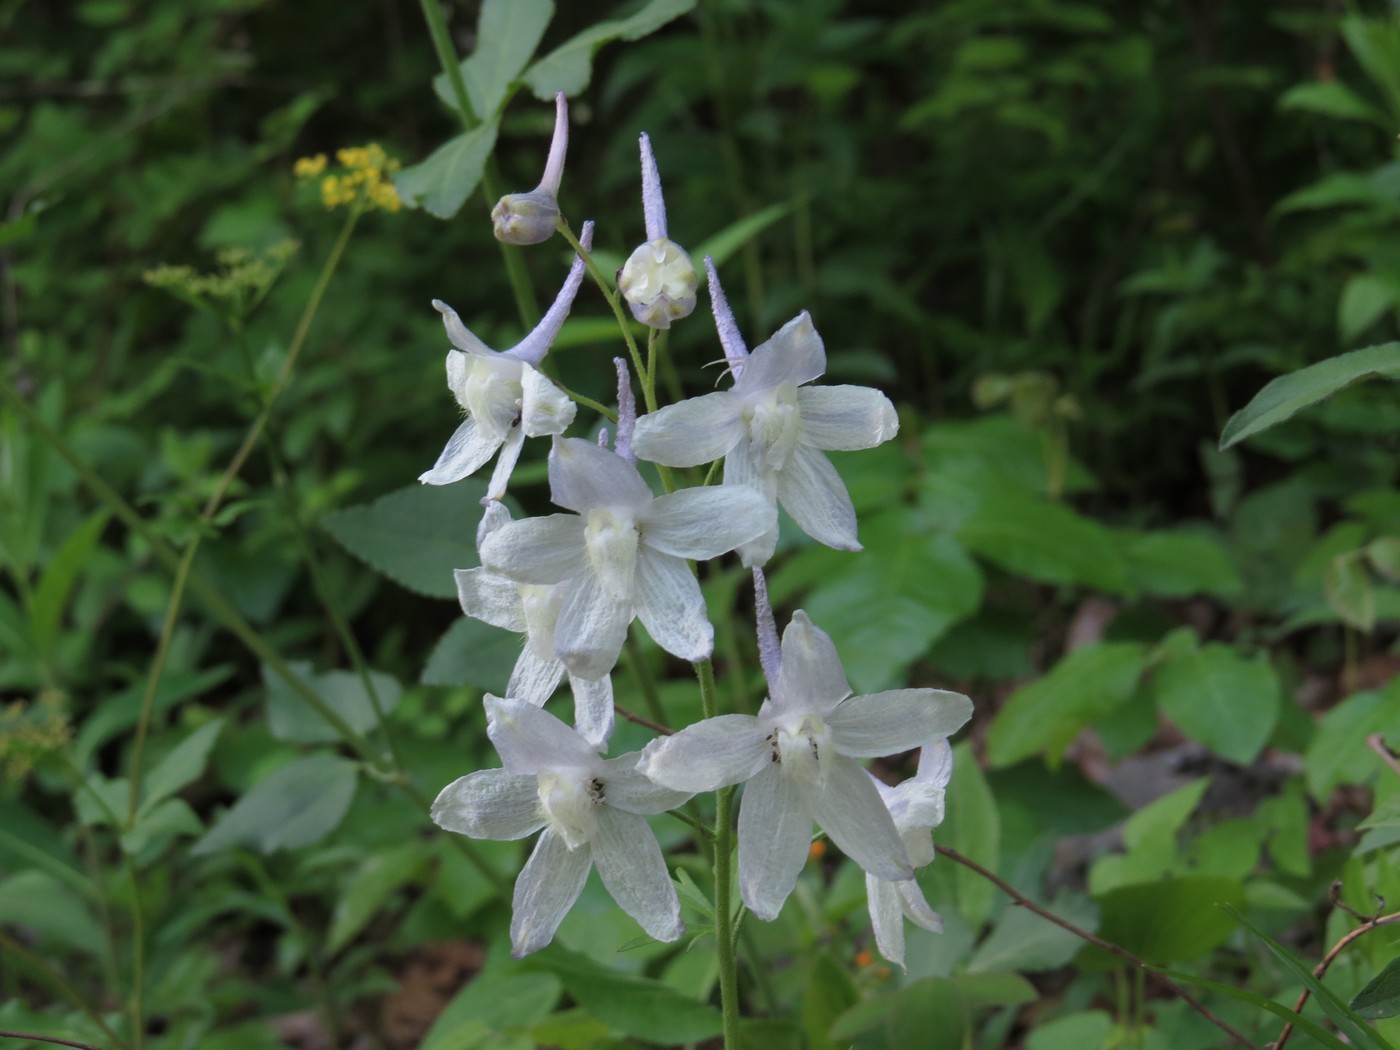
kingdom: Plantae
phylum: Tracheophyta
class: Magnoliopsida
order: Ranunculales
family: Ranunculaceae
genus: Delphinium
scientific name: Delphinium tricorne
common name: Dwarf larkspur
